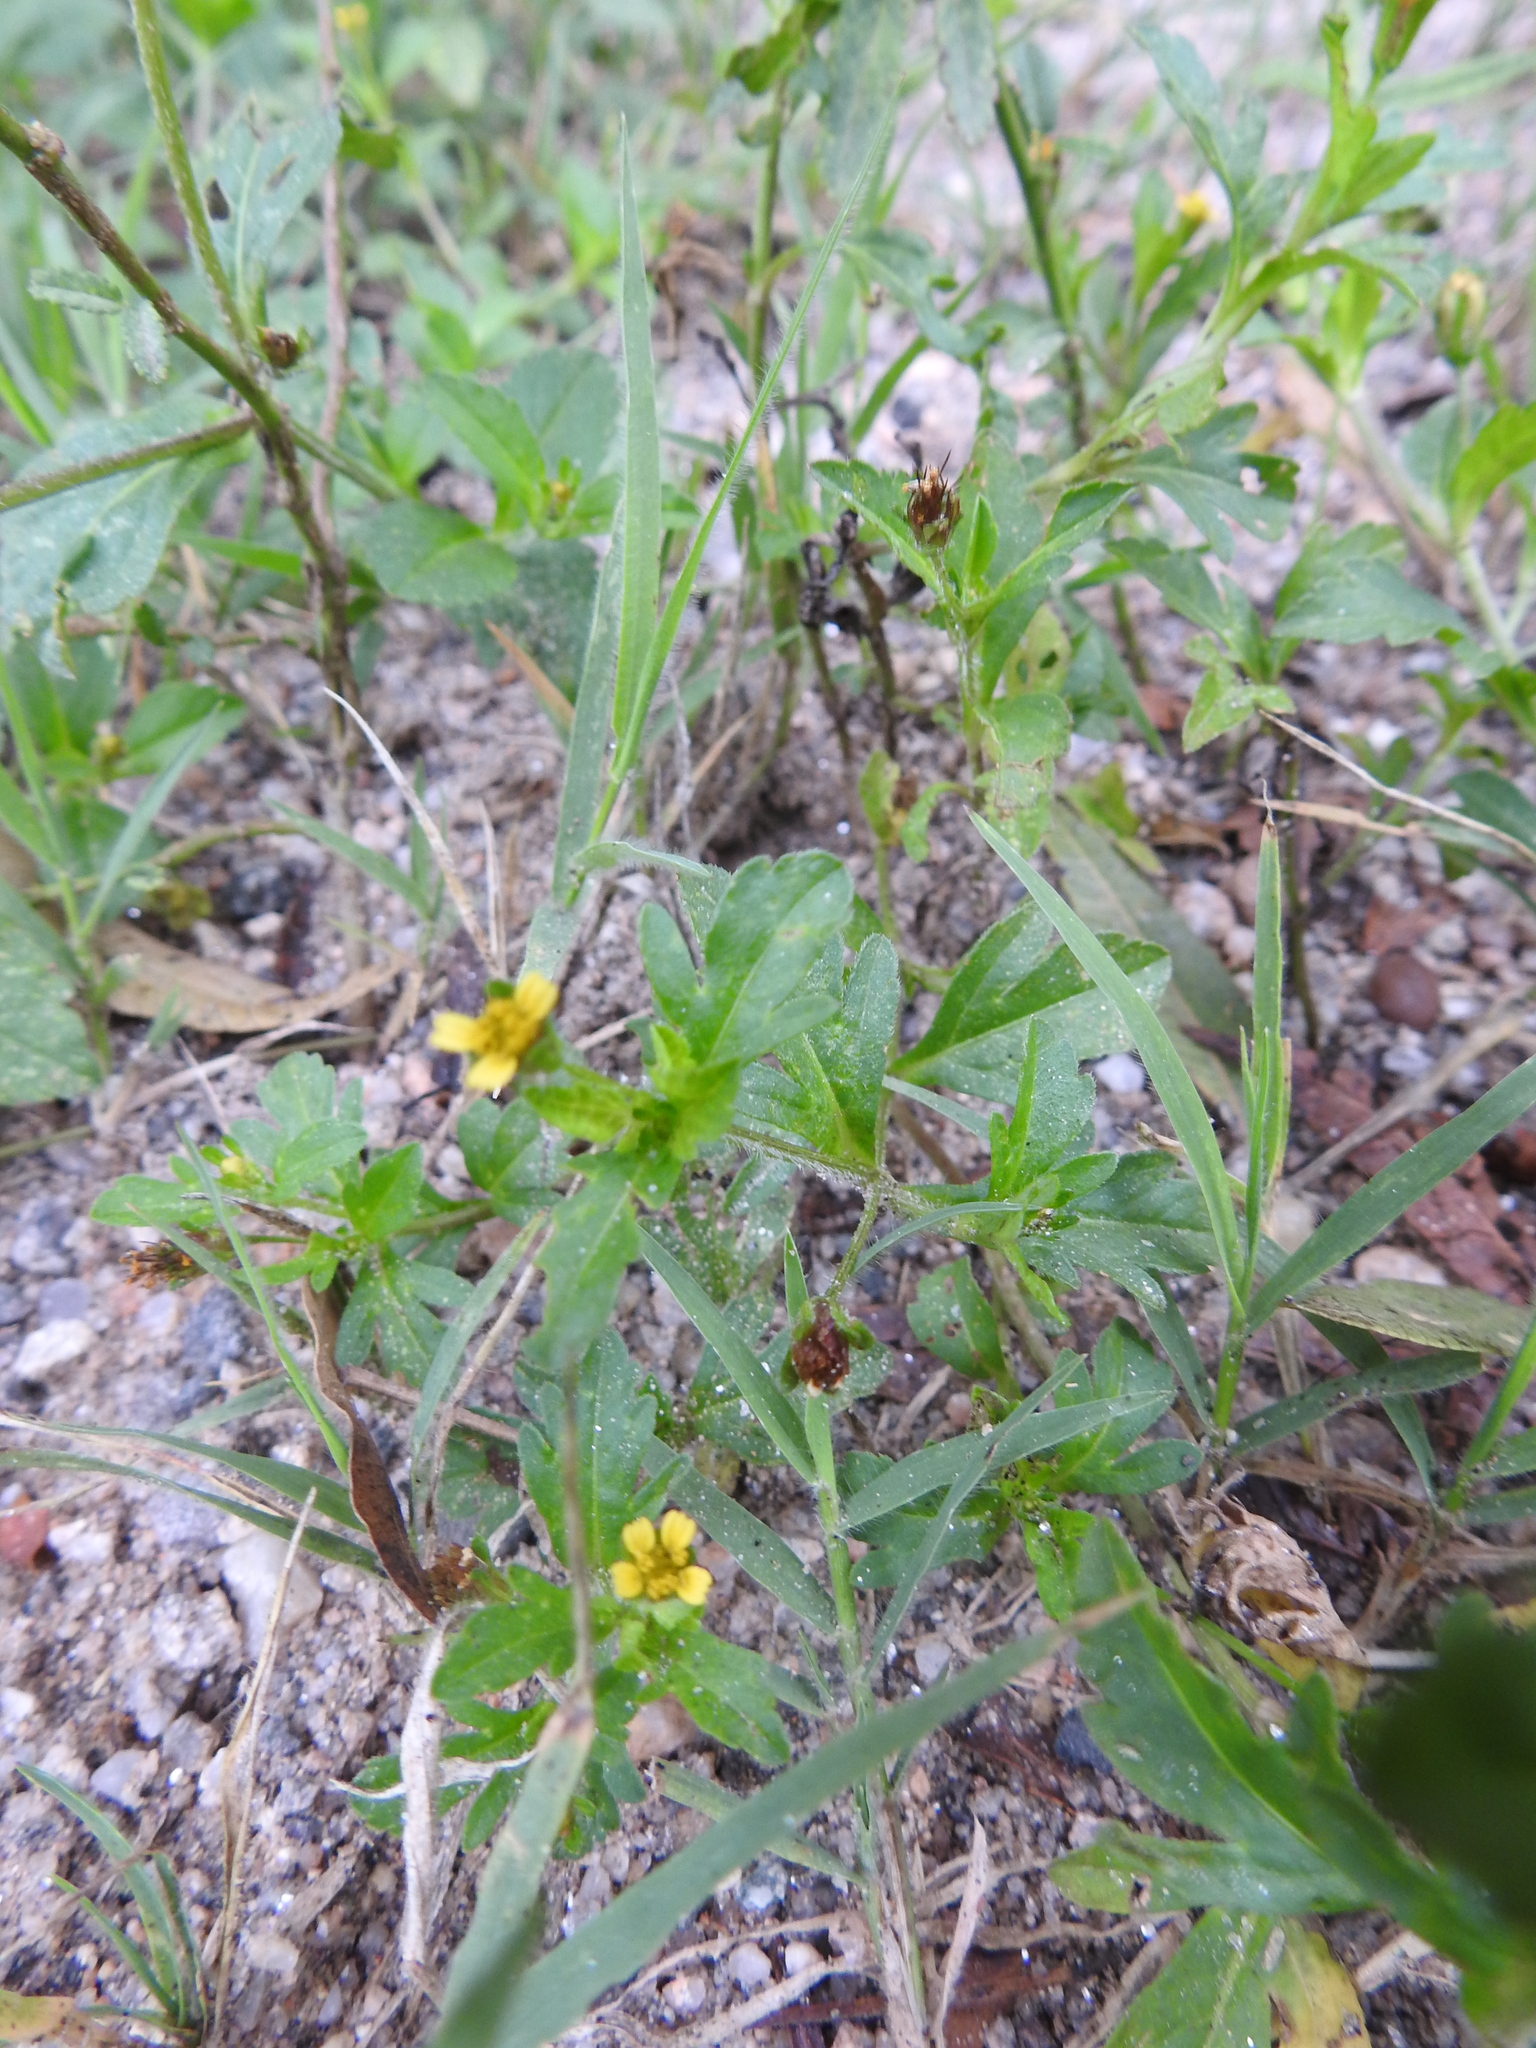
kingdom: Plantae
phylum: Tracheophyta
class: Magnoliopsida
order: Asterales
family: Asteraceae
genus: Heterosperma
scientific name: Heterosperma tenuisectum
